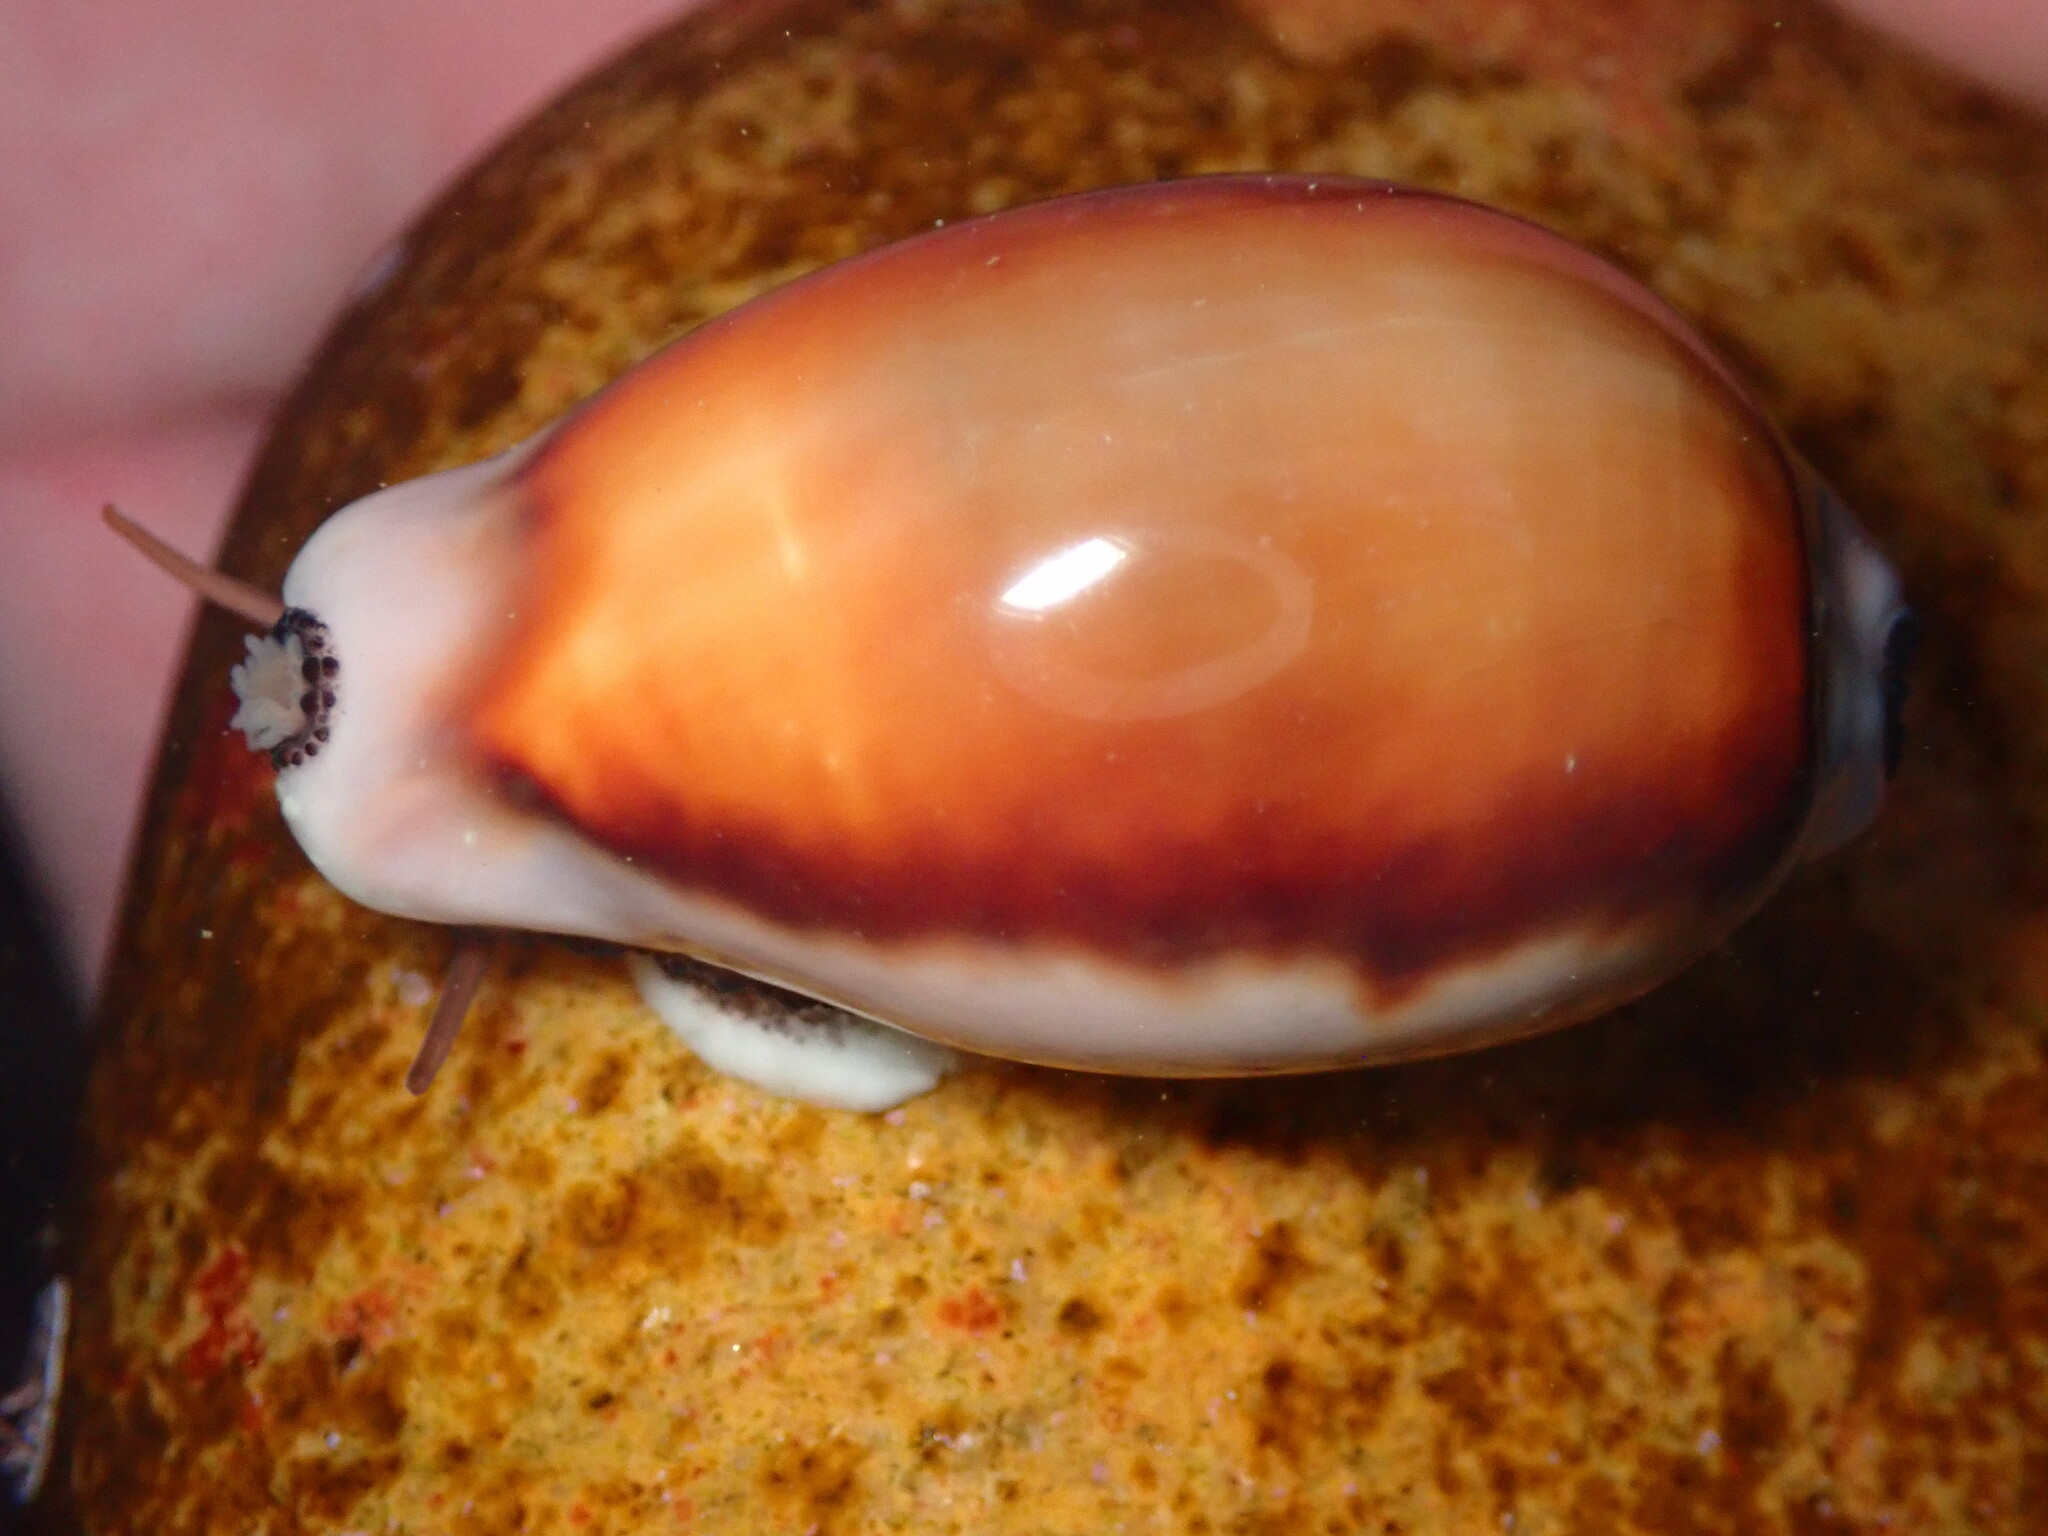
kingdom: Animalia
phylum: Mollusca
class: Gastropoda
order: Littorinimorpha
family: Cypraeidae
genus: Neobernaya
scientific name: Neobernaya spadicea
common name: Chestnut cowrie
